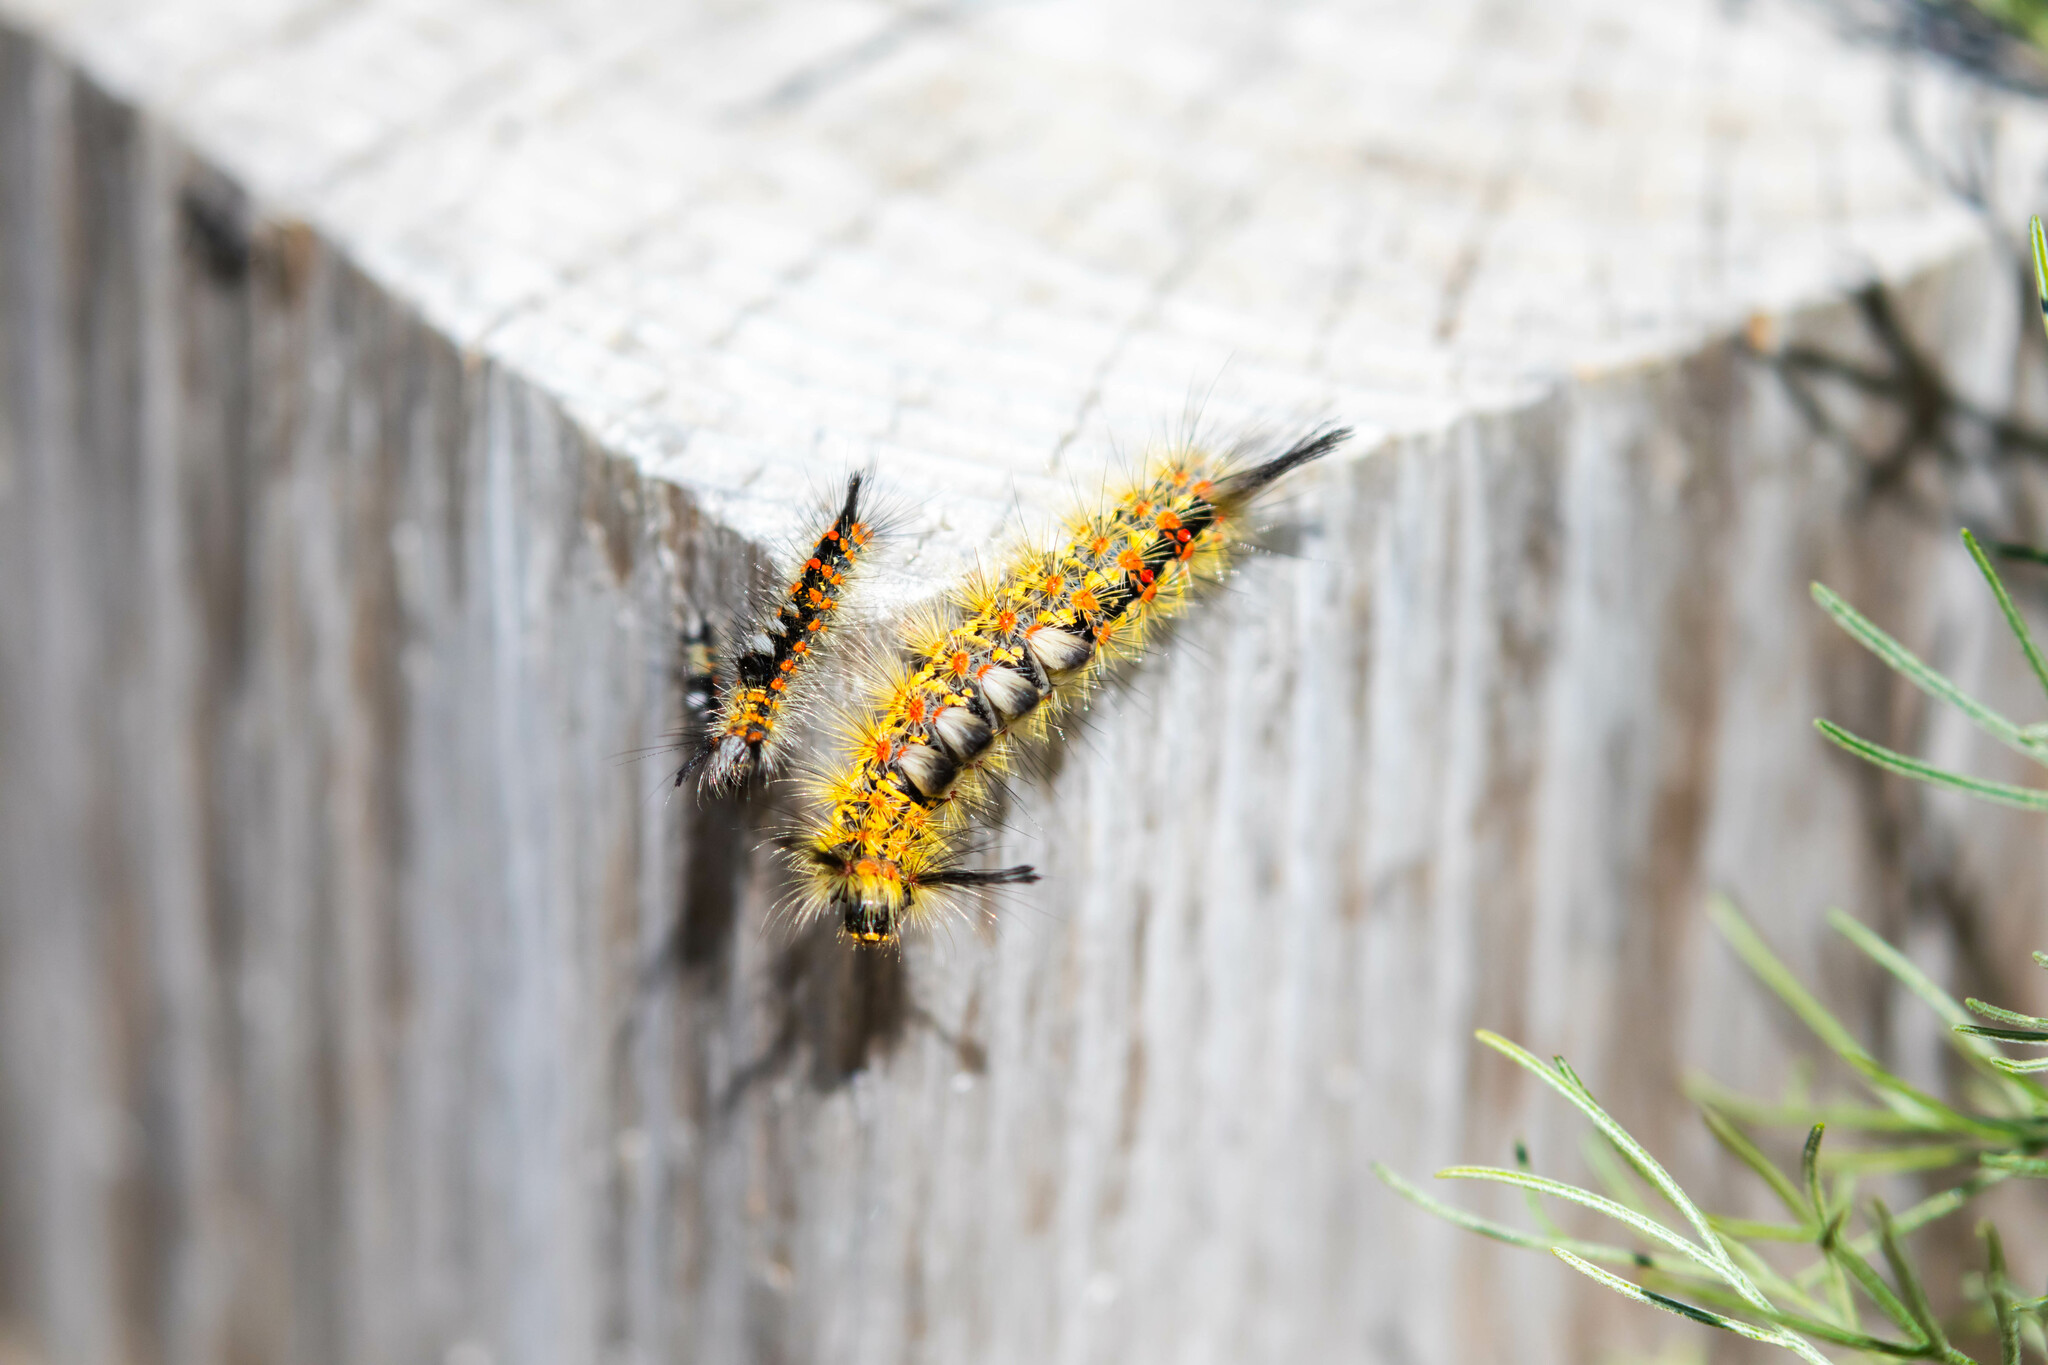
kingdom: Animalia
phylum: Arthropoda
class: Insecta
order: Lepidoptera
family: Erebidae
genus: Orgyia
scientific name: Orgyia vetusta
